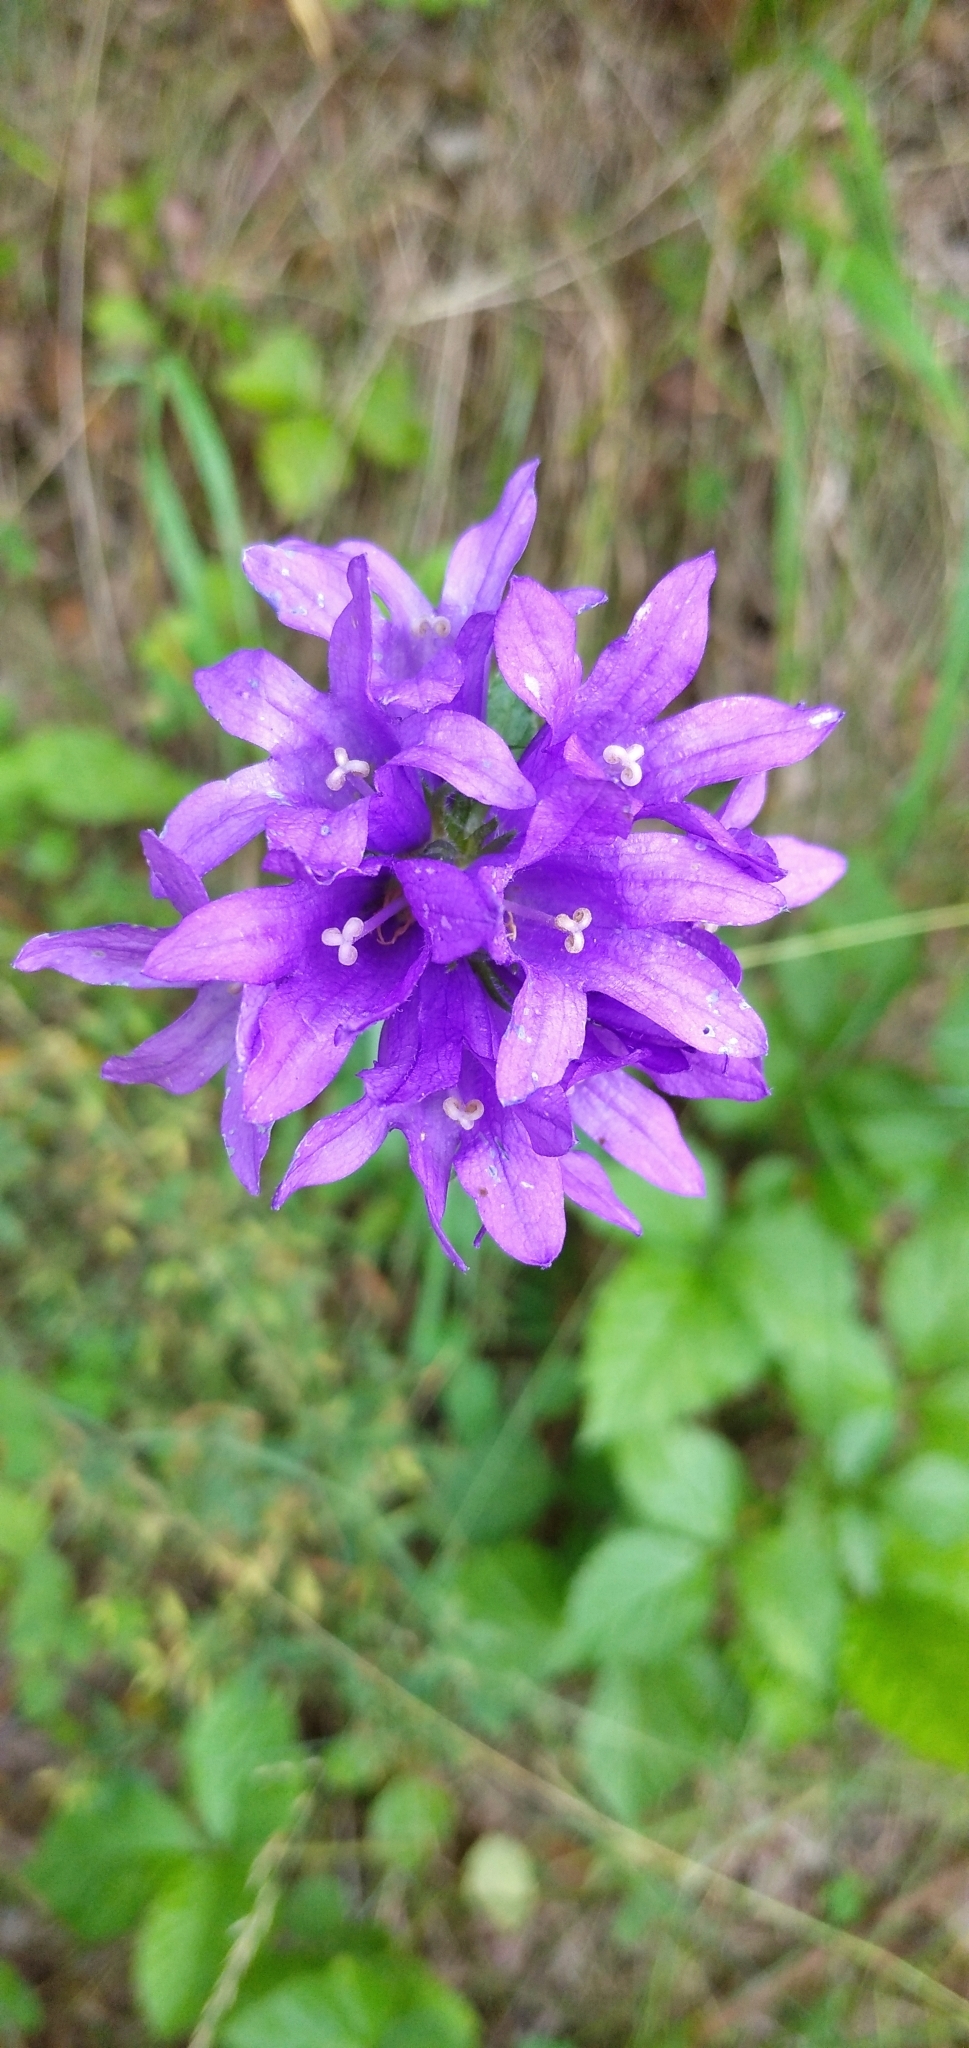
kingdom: Plantae
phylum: Tracheophyta
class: Magnoliopsida
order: Asterales
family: Campanulaceae
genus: Campanula
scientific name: Campanula glomerata
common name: Clustered bellflower
